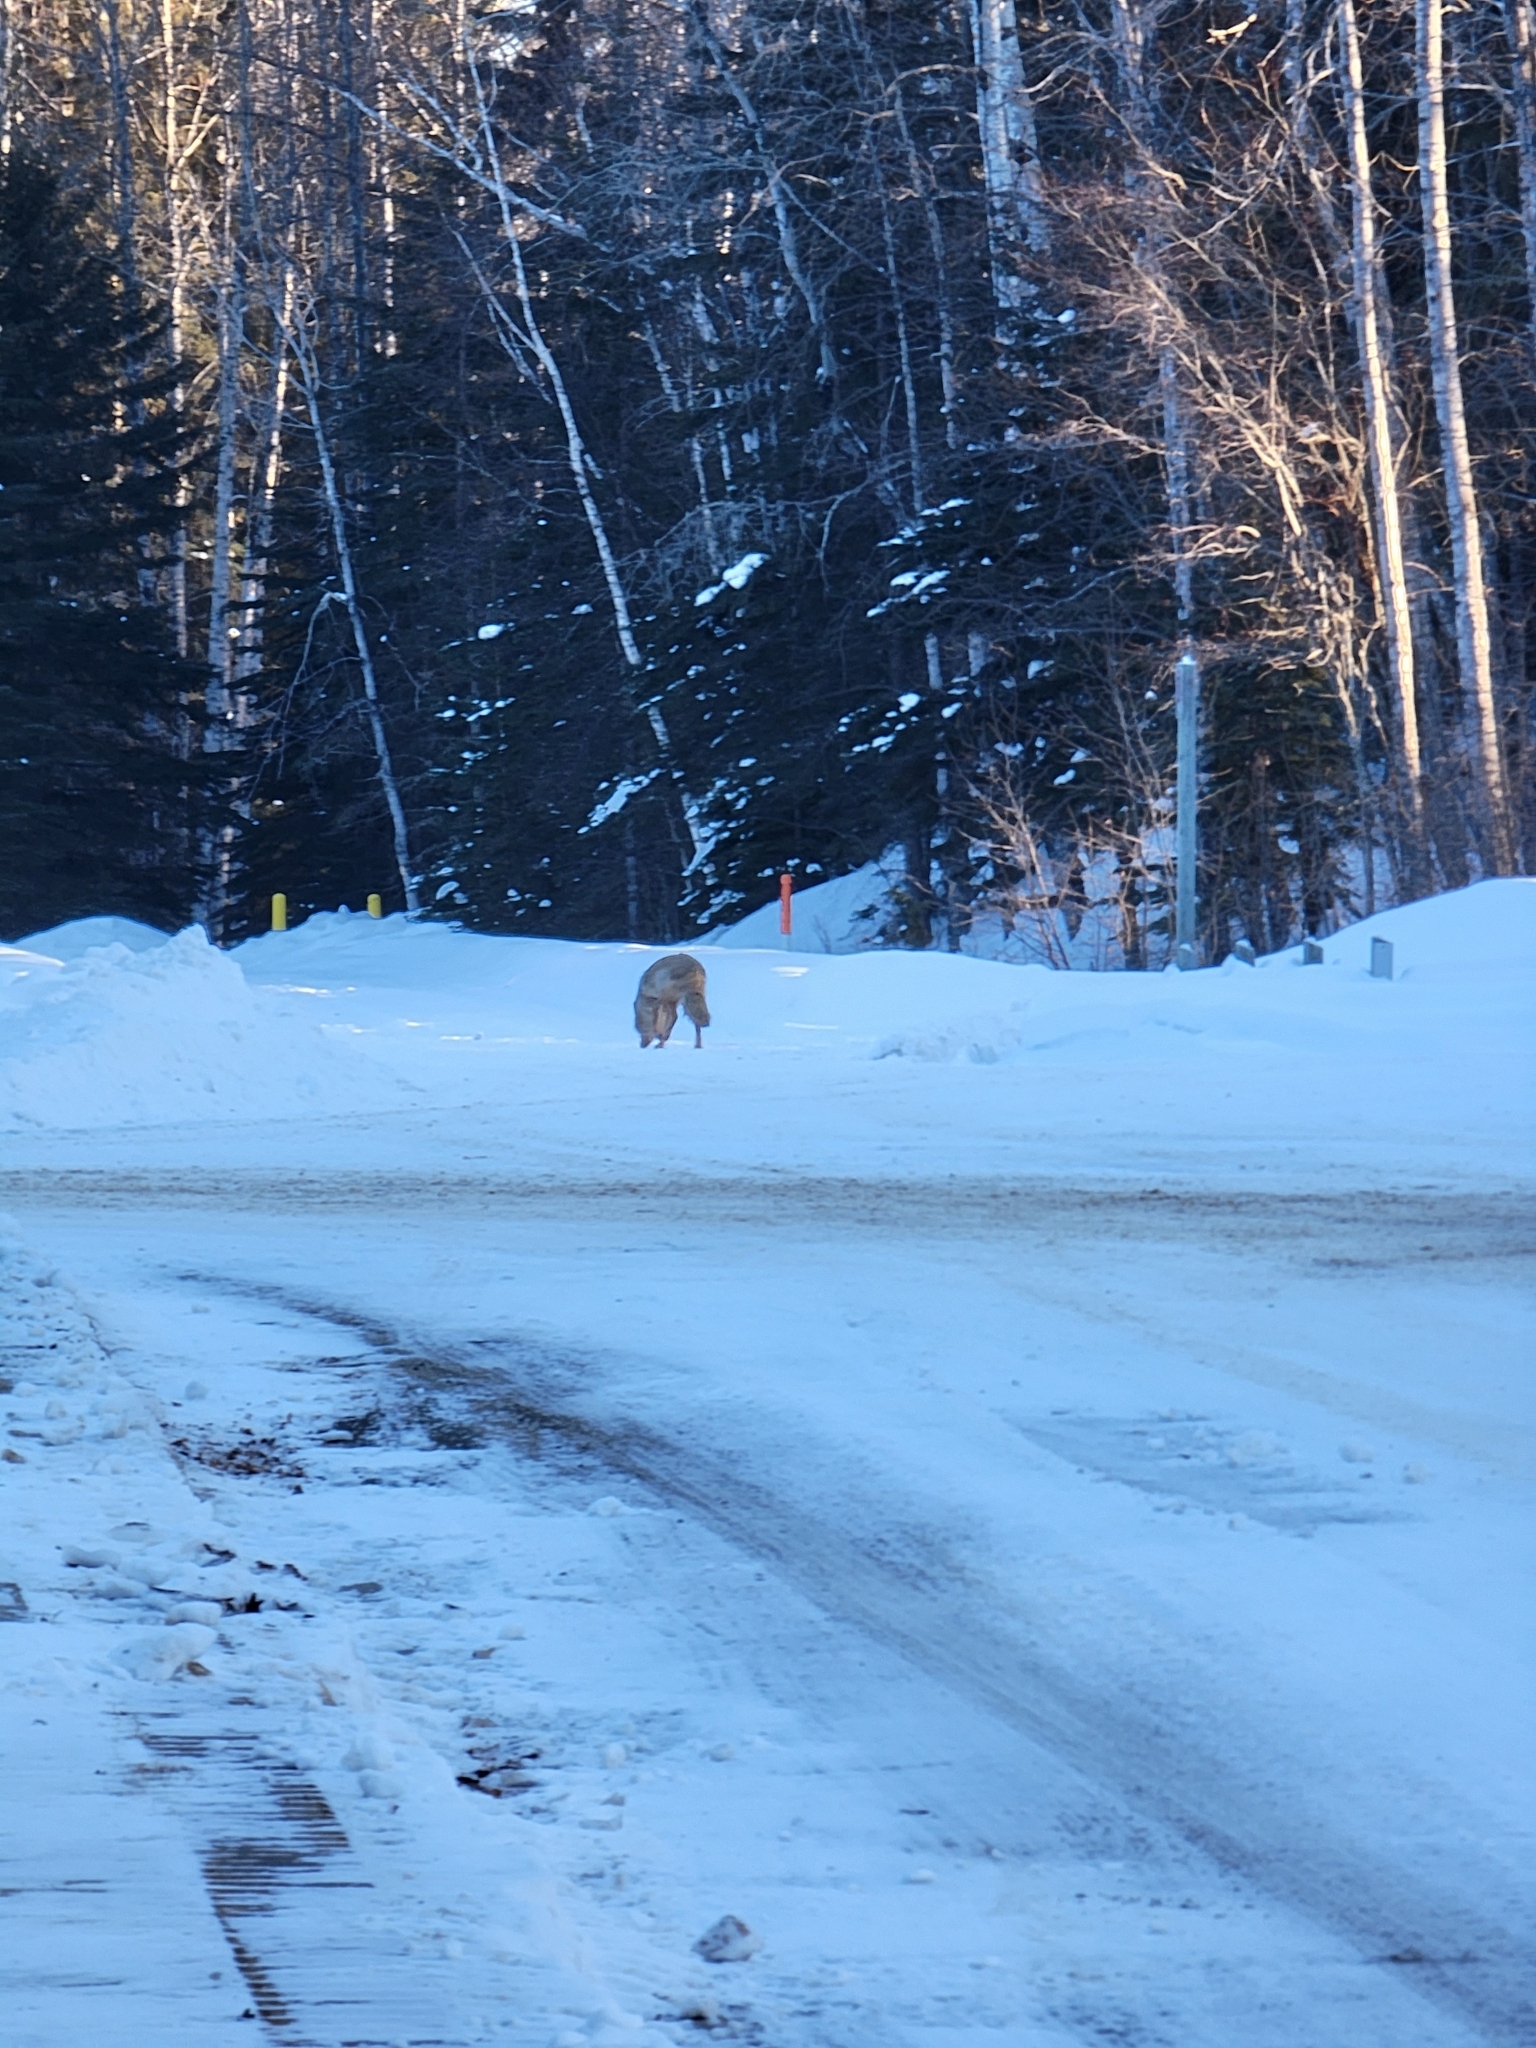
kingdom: Animalia
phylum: Chordata
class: Mammalia
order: Carnivora
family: Canidae
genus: Canis
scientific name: Canis latrans
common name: Coyote
